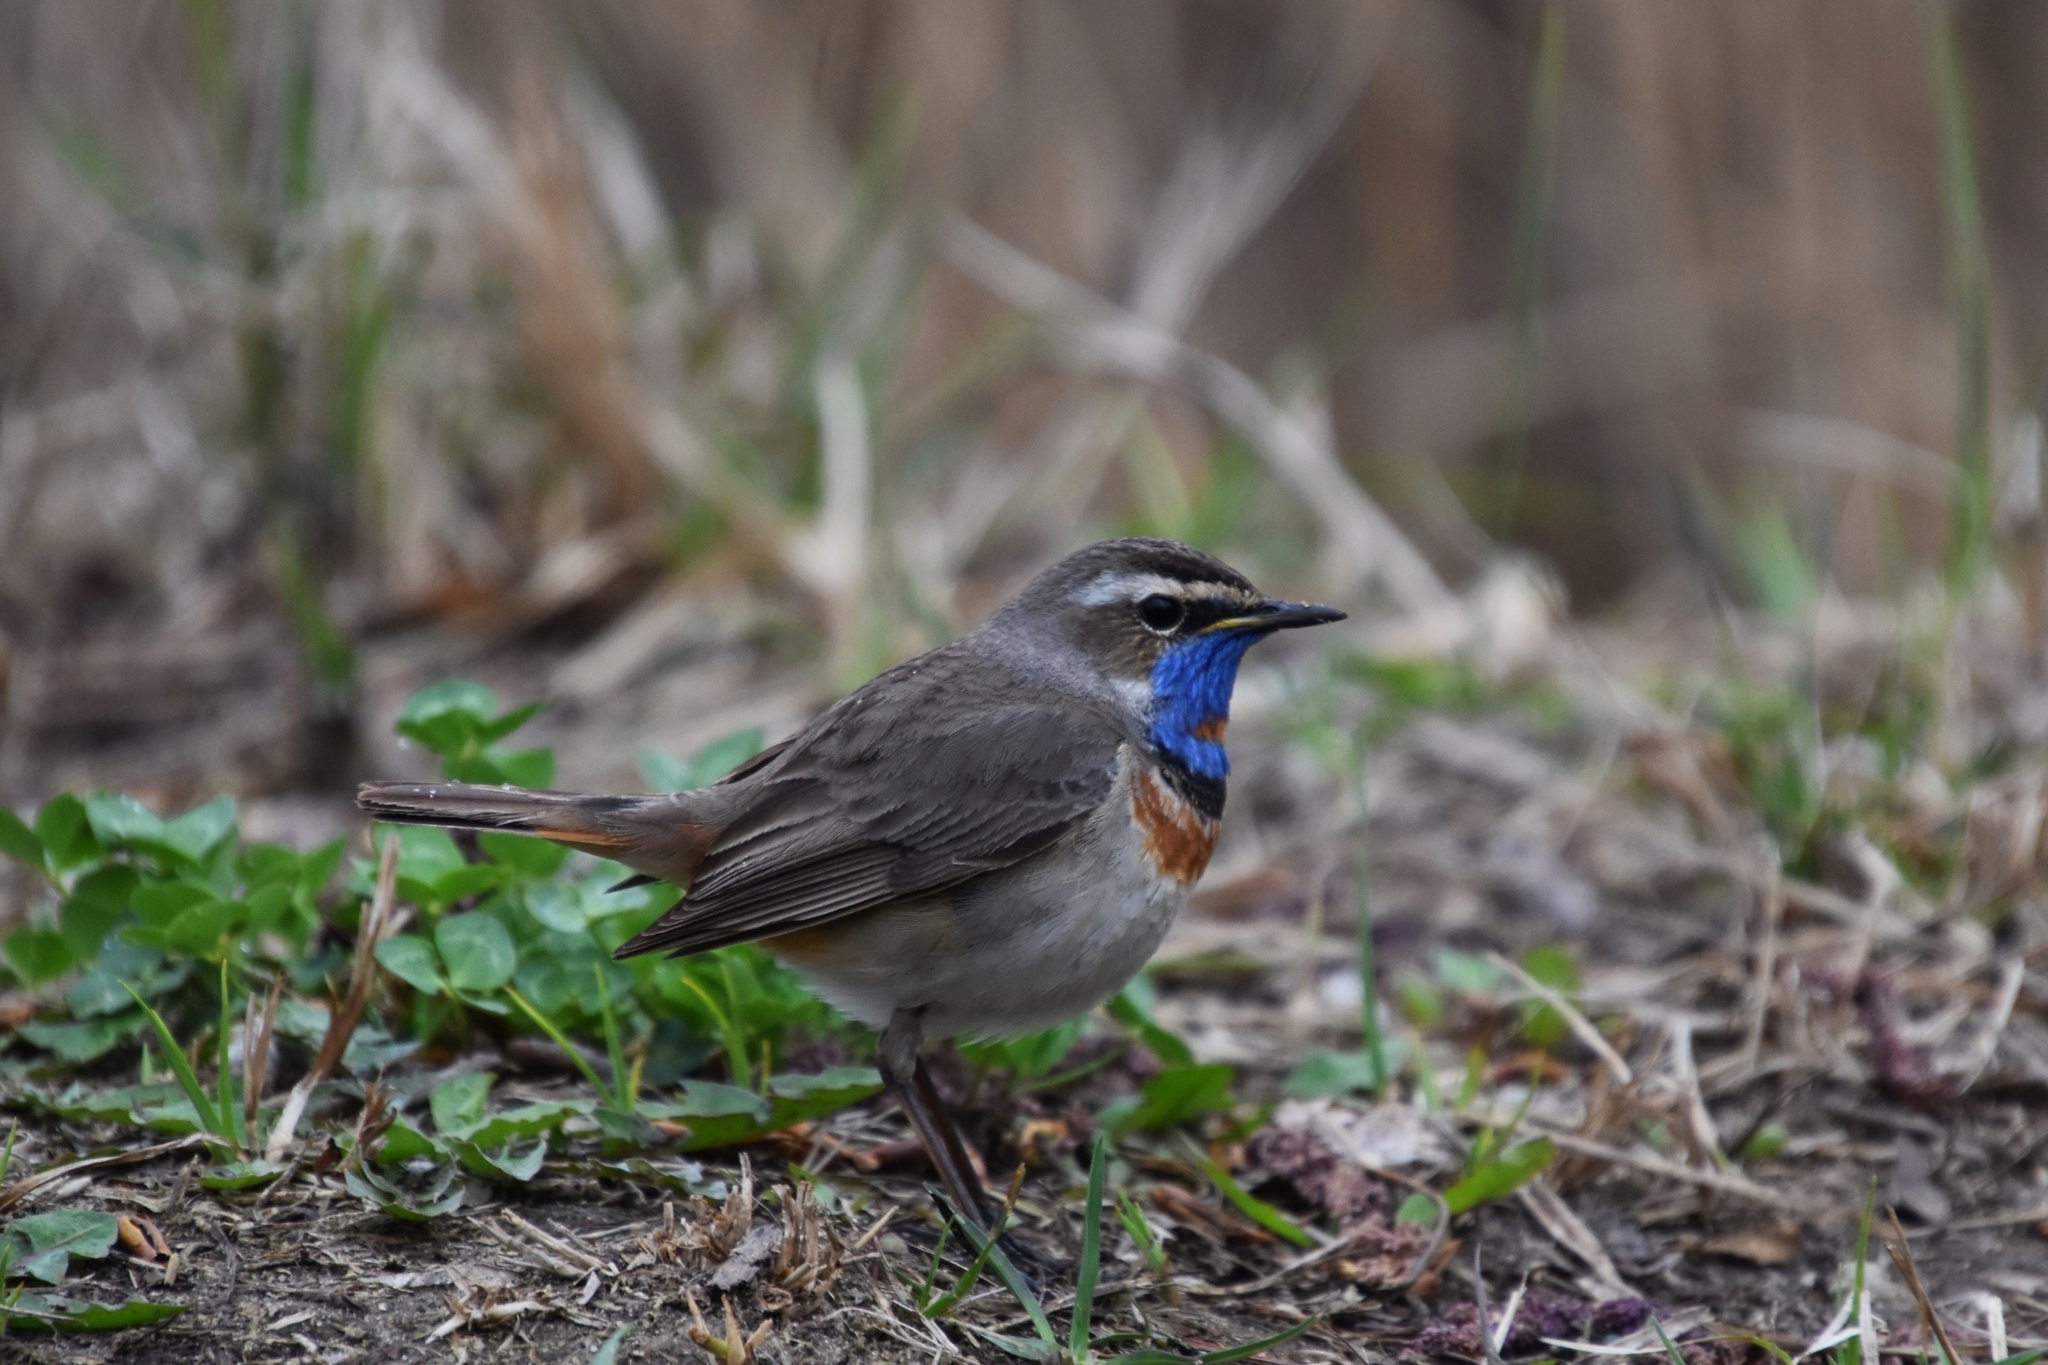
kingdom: Animalia
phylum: Chordata
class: Aves
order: Passeriformes
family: Muscicapidae
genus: Luscinia
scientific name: Luscinia svecica
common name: Bluethroat
